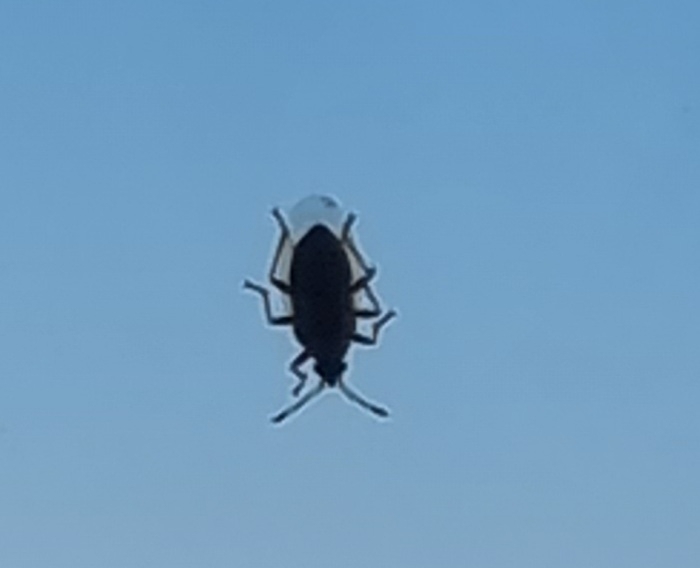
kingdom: Animalia
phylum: Arthropoda
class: Insecta
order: Hemiptera
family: Lygaeidae
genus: Kleidocerys
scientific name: Kleidocerys resedae
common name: Birch catkin bug
